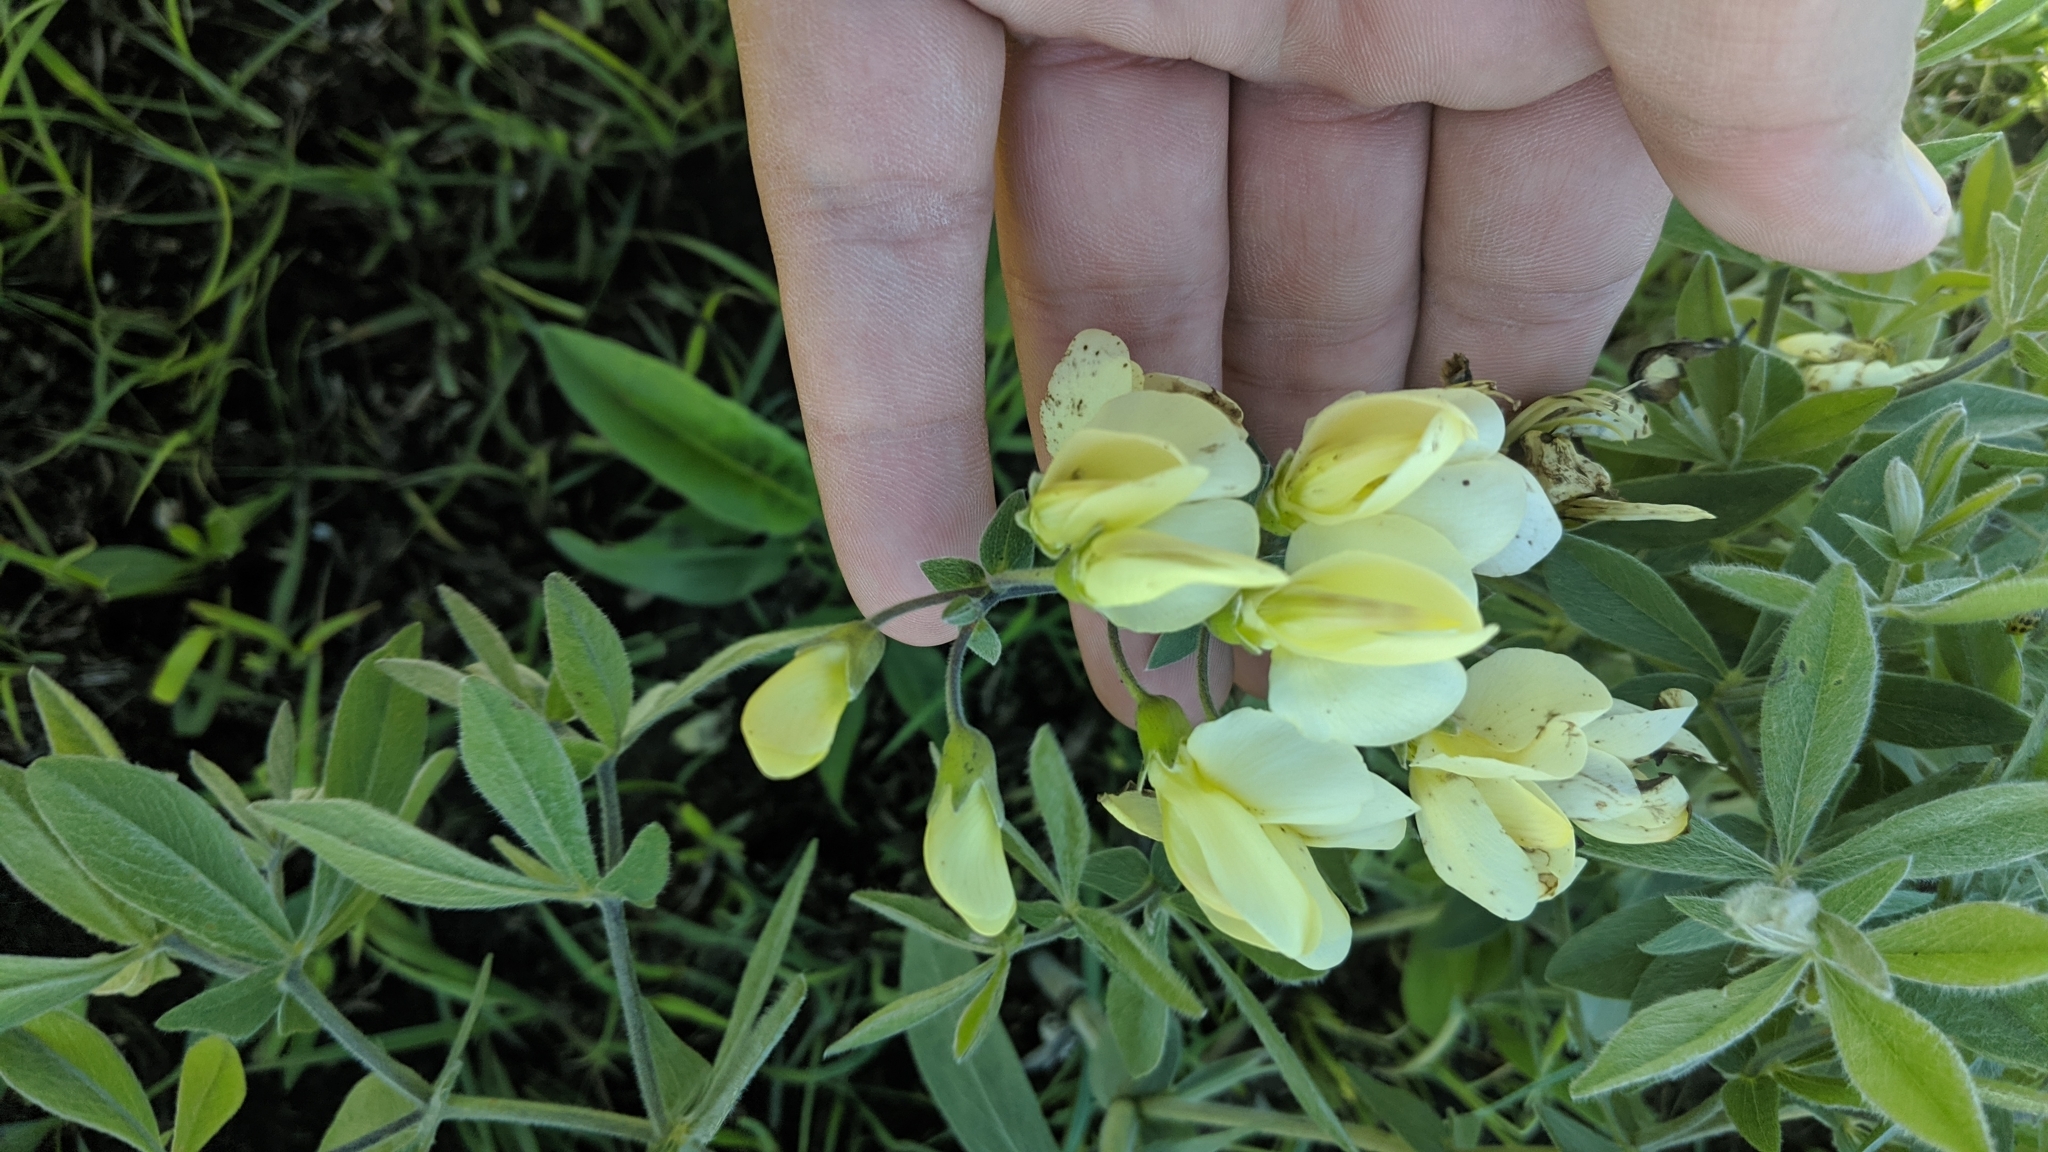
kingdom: Plantae
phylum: Tracheophyta
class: Magnoliopsida
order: Fabales
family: Fabaceae
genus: Baptisia
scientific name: Baptisia bracteata
